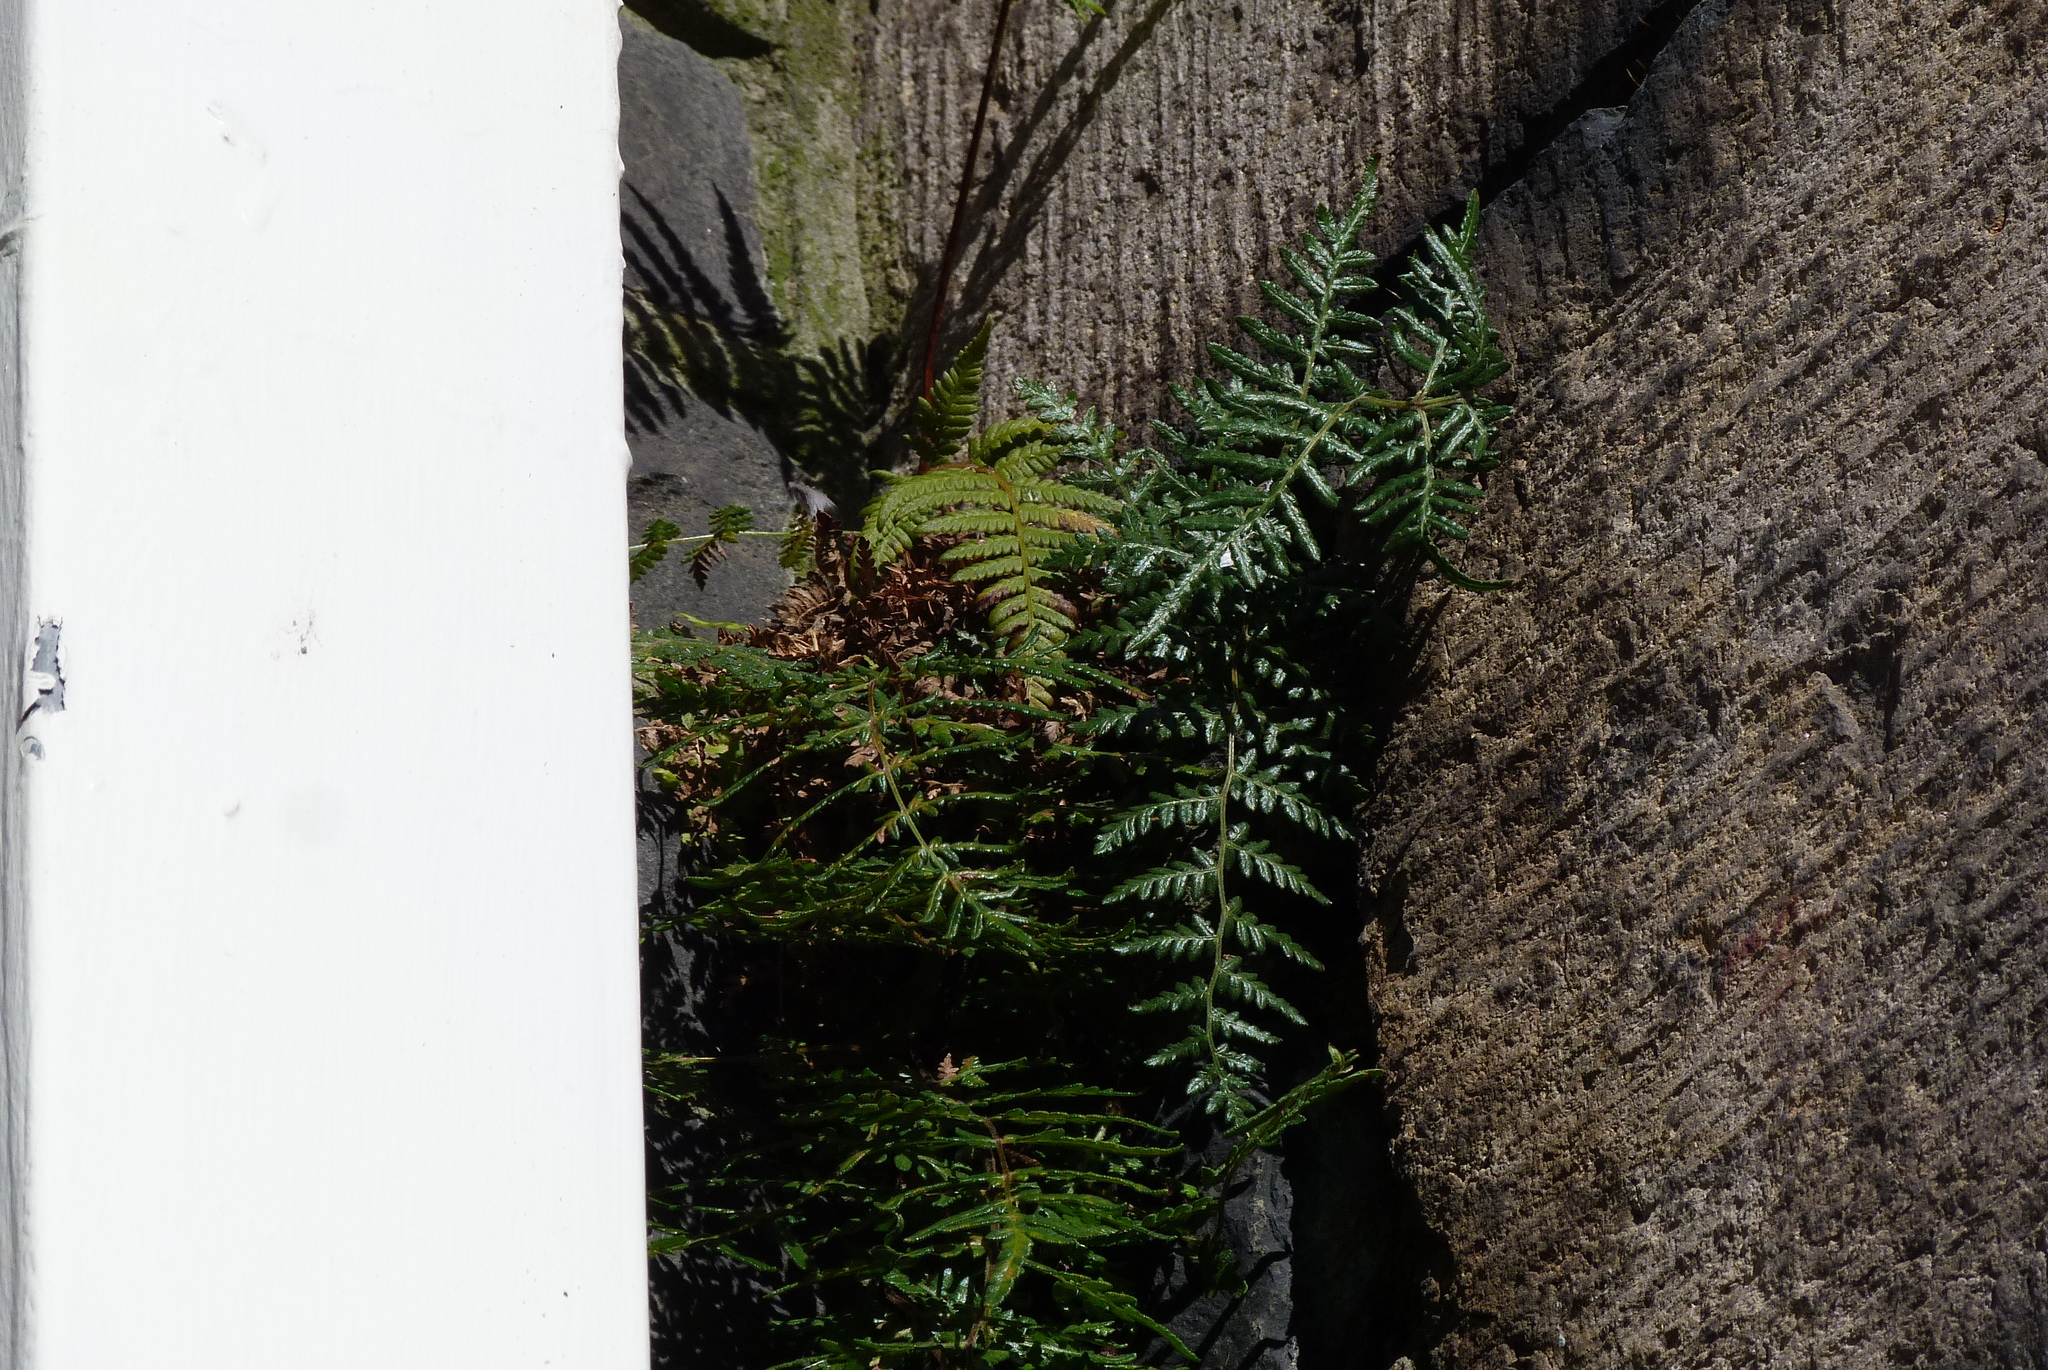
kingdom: Plantae
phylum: Tracheophyta
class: Polypodiopsida
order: Polypodiales
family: Dennstaedtiaceae
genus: Pteridium
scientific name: Pteridium esculentum
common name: Bracken fern
